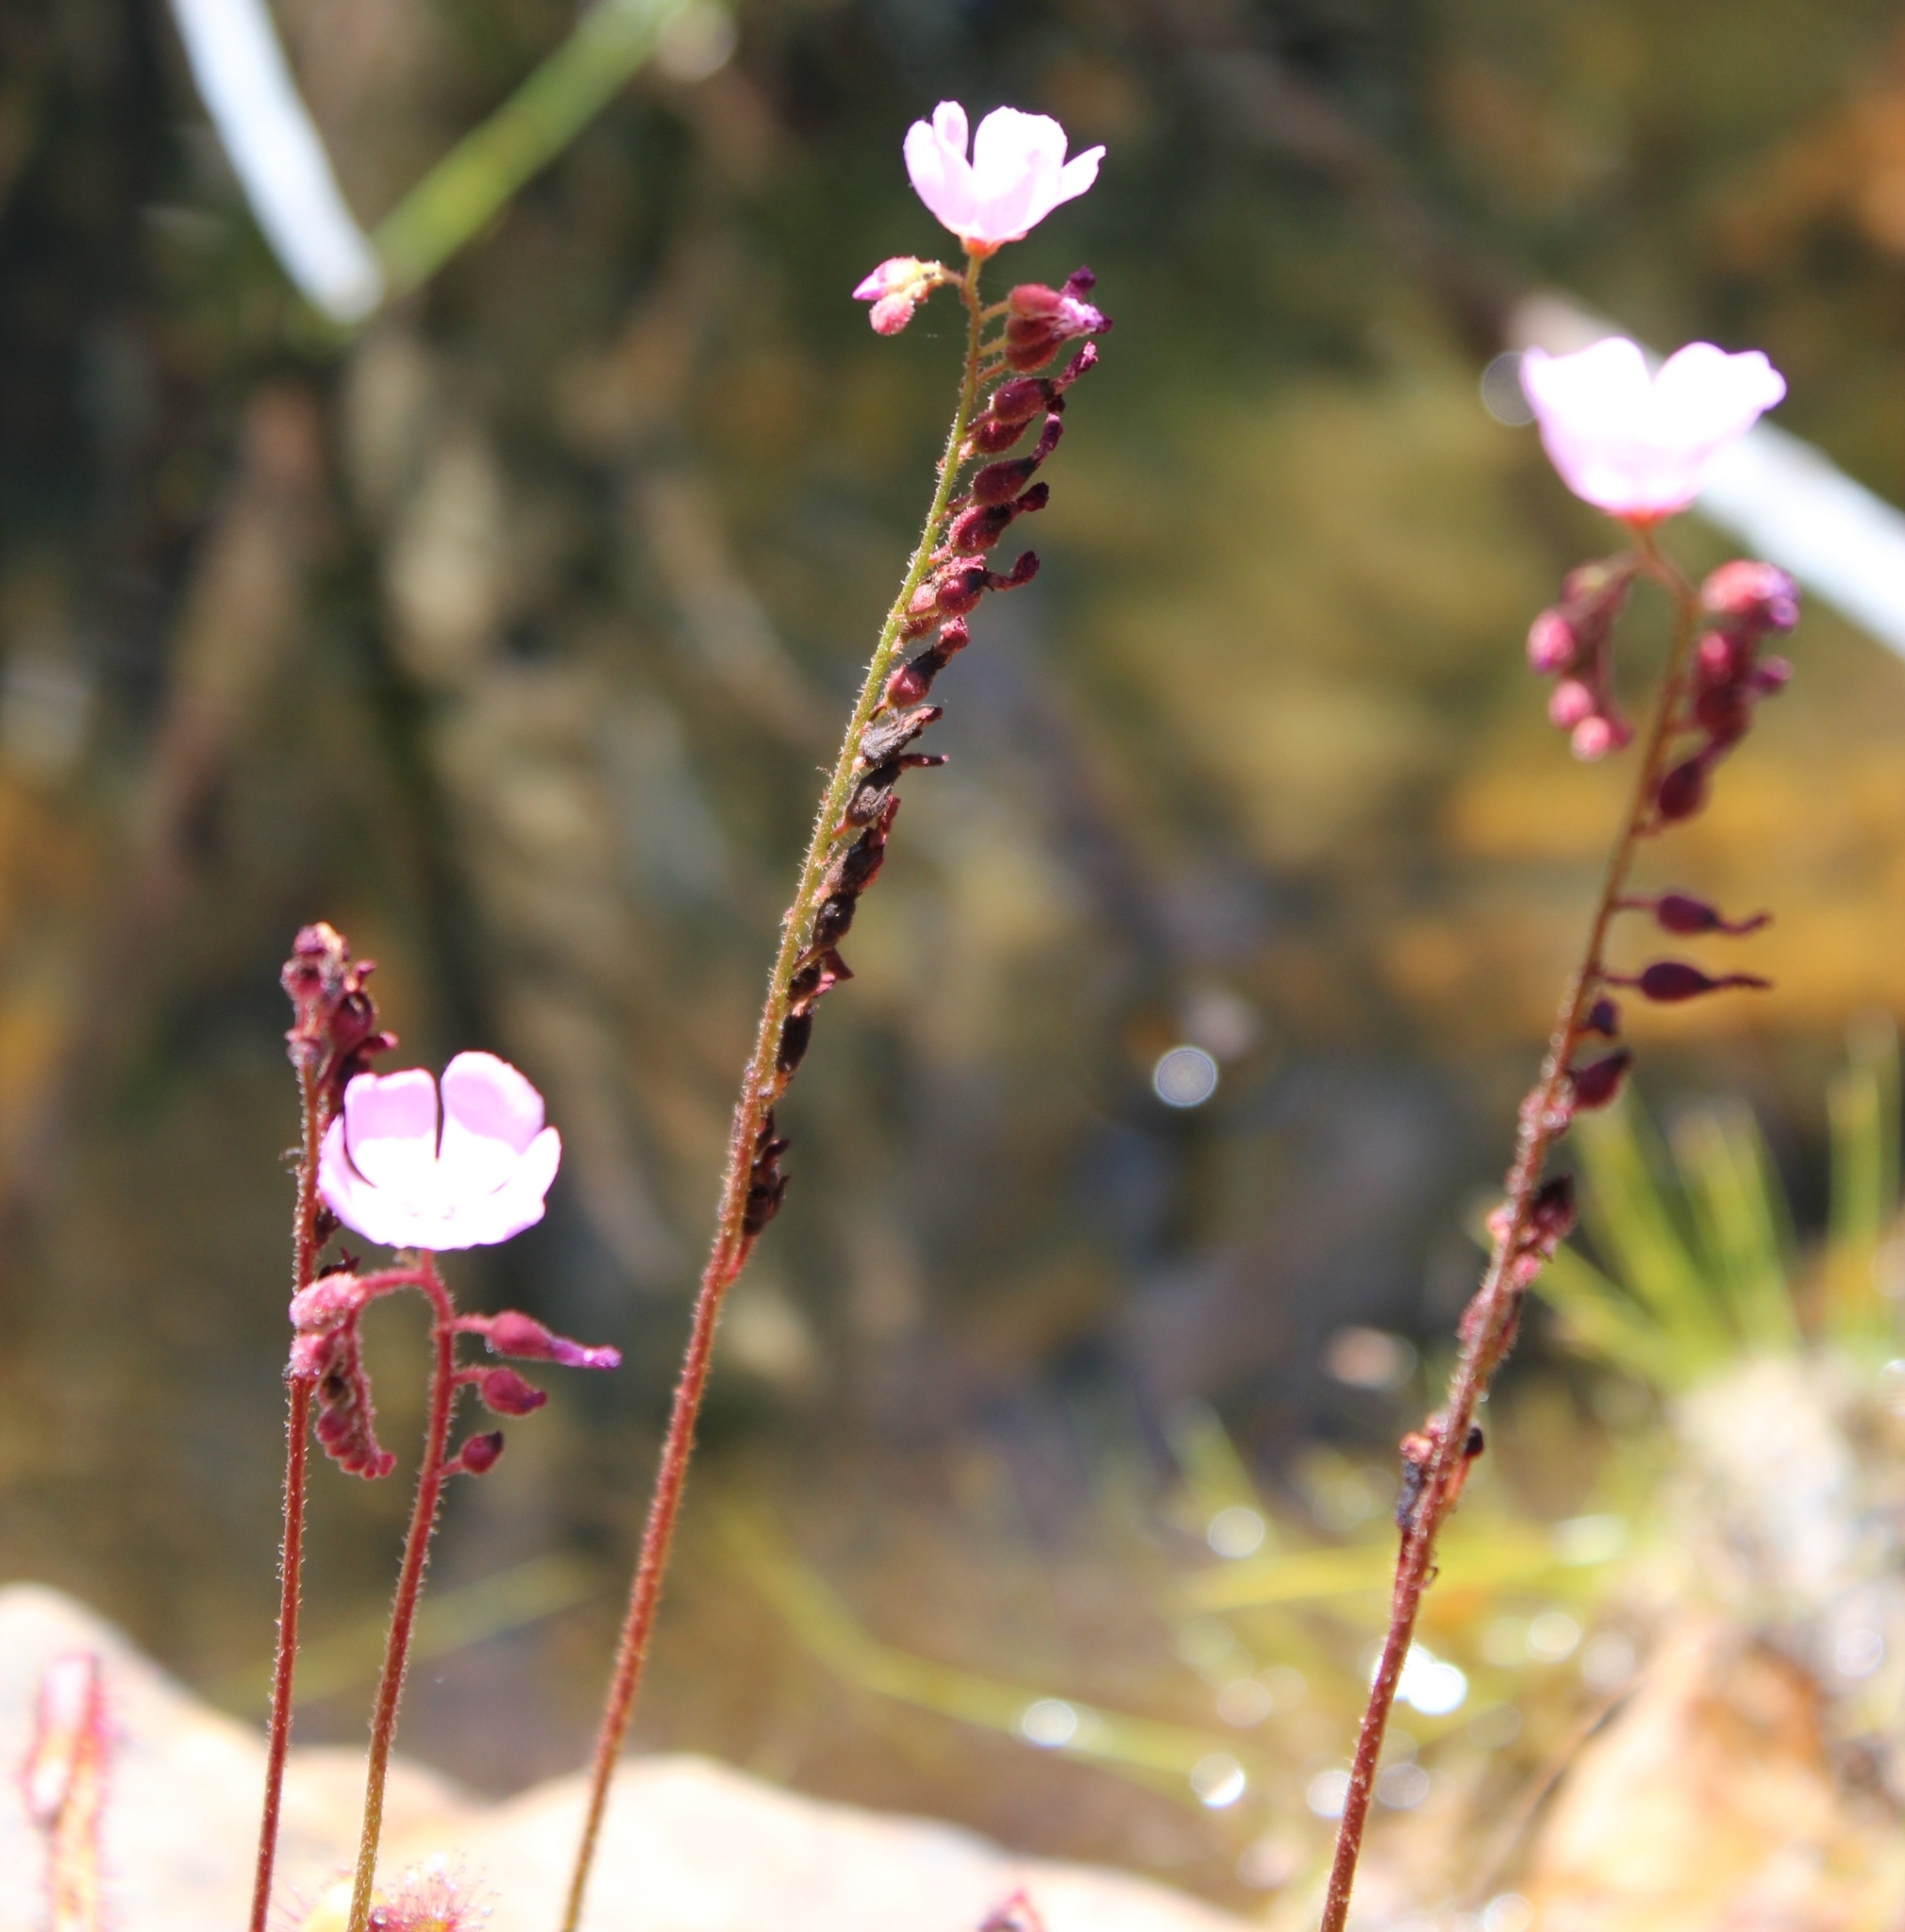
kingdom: Plantae
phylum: Tracheophyta
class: Magnoliopsida
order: Caryophyllales
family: Droseraceae
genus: Drosera
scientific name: Drosera capensis
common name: Cape sundew
